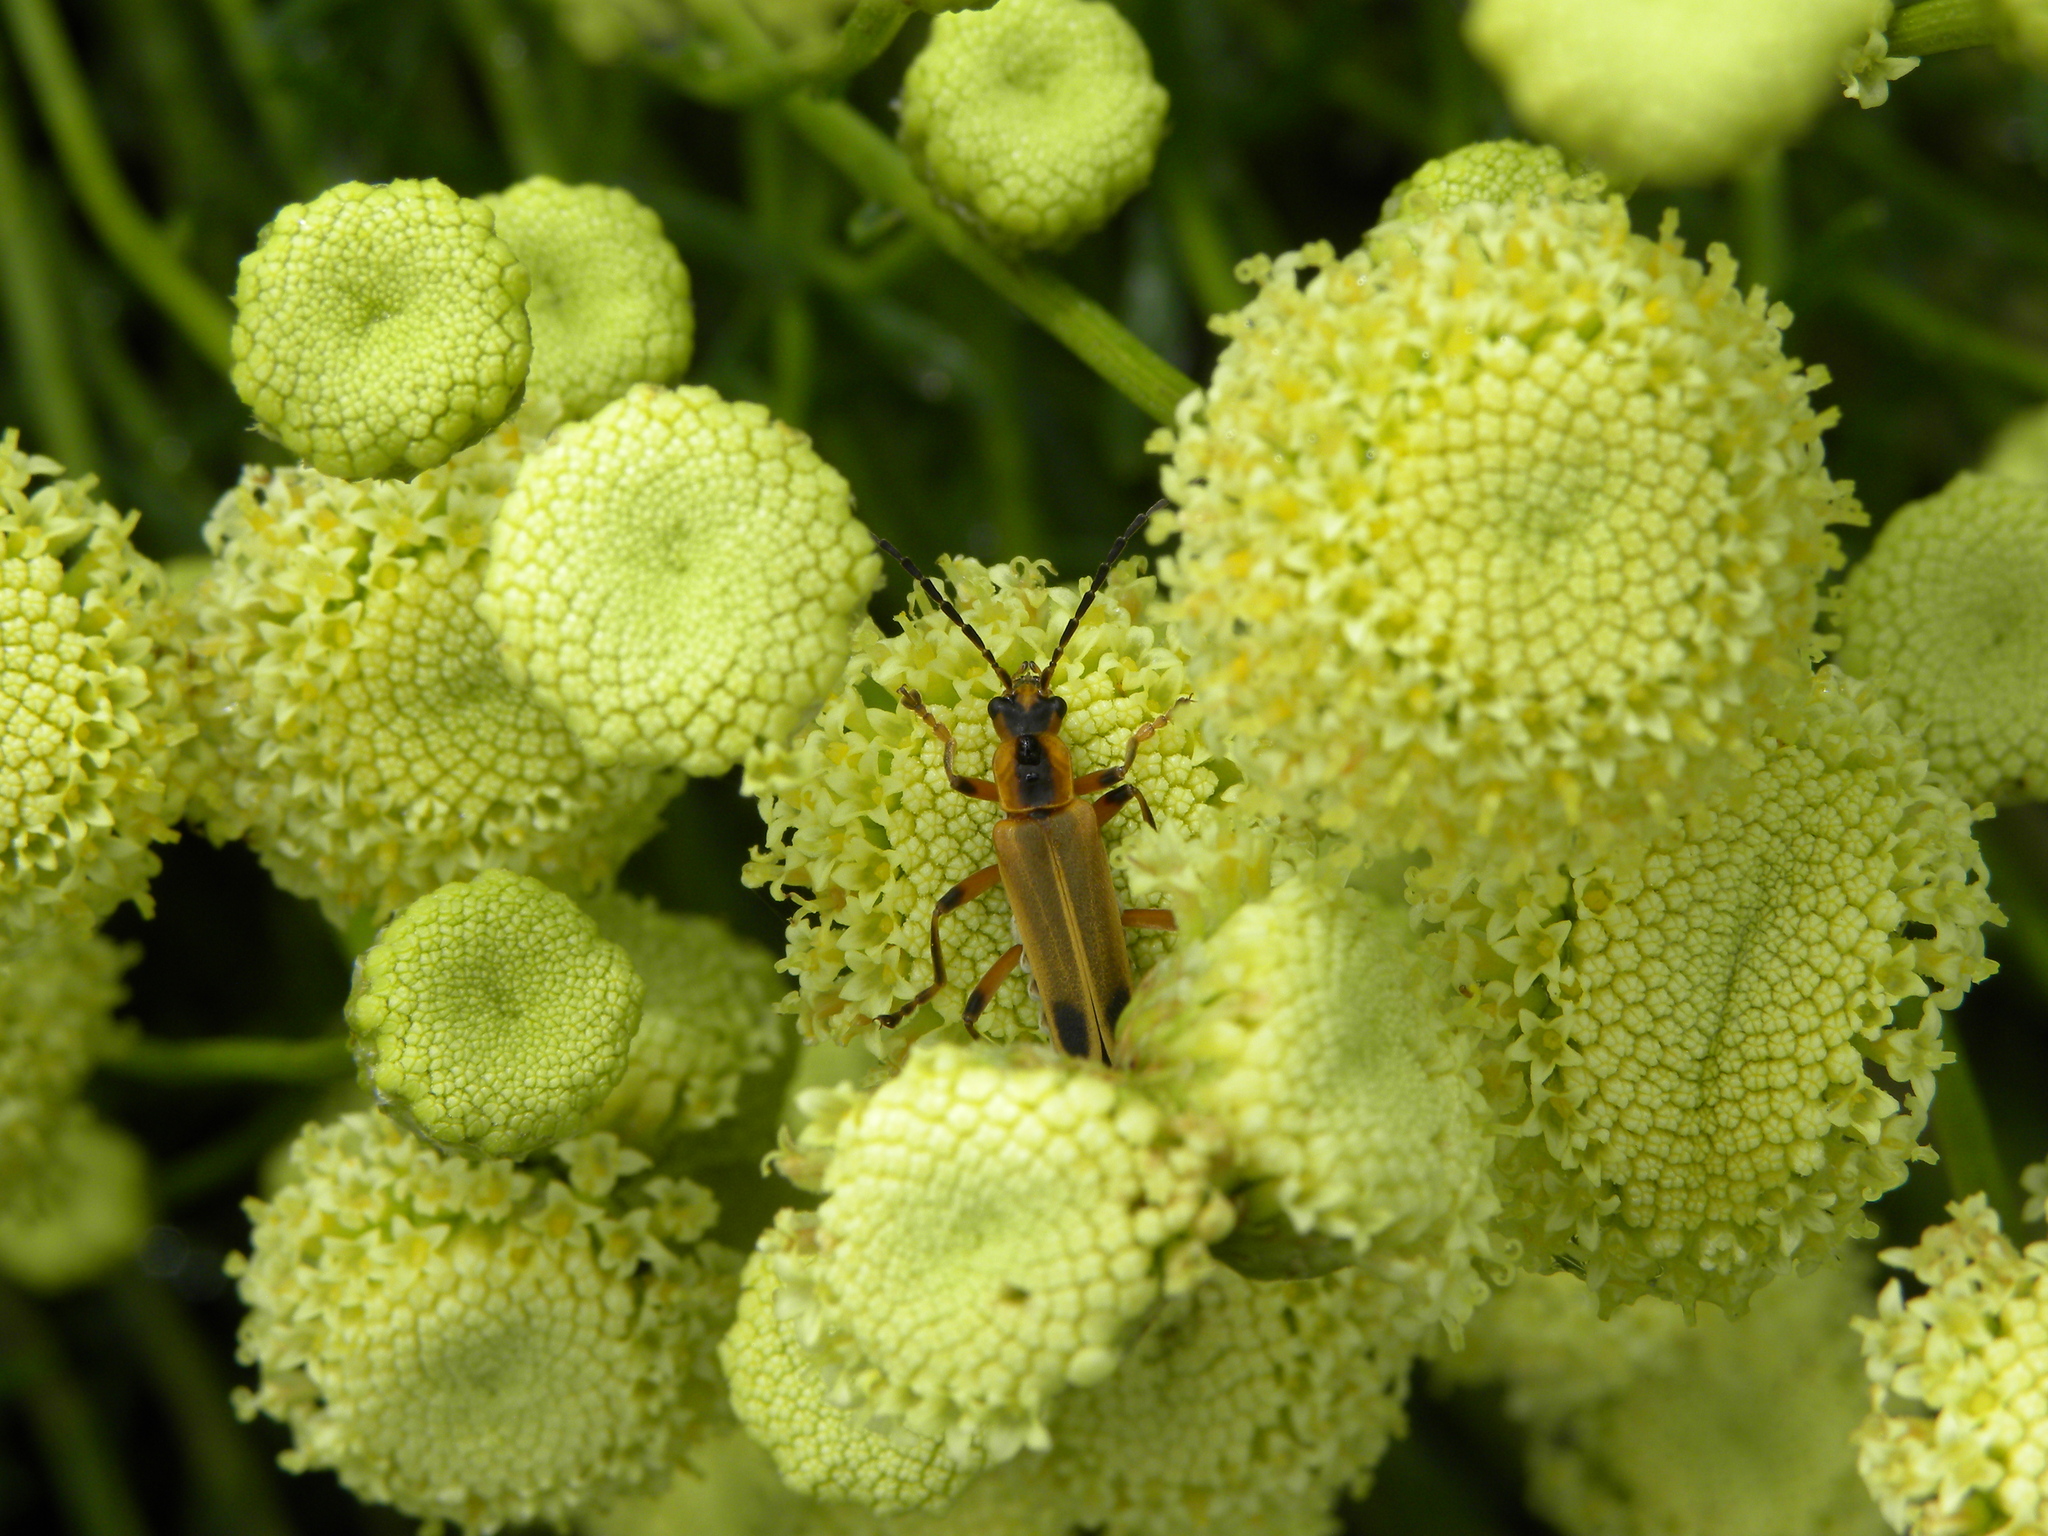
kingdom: Animalia
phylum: Arthropoda
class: Insecta
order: Coleoptera
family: Cantharidae
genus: Chauliognathus
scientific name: Chauliognathus marginatus
